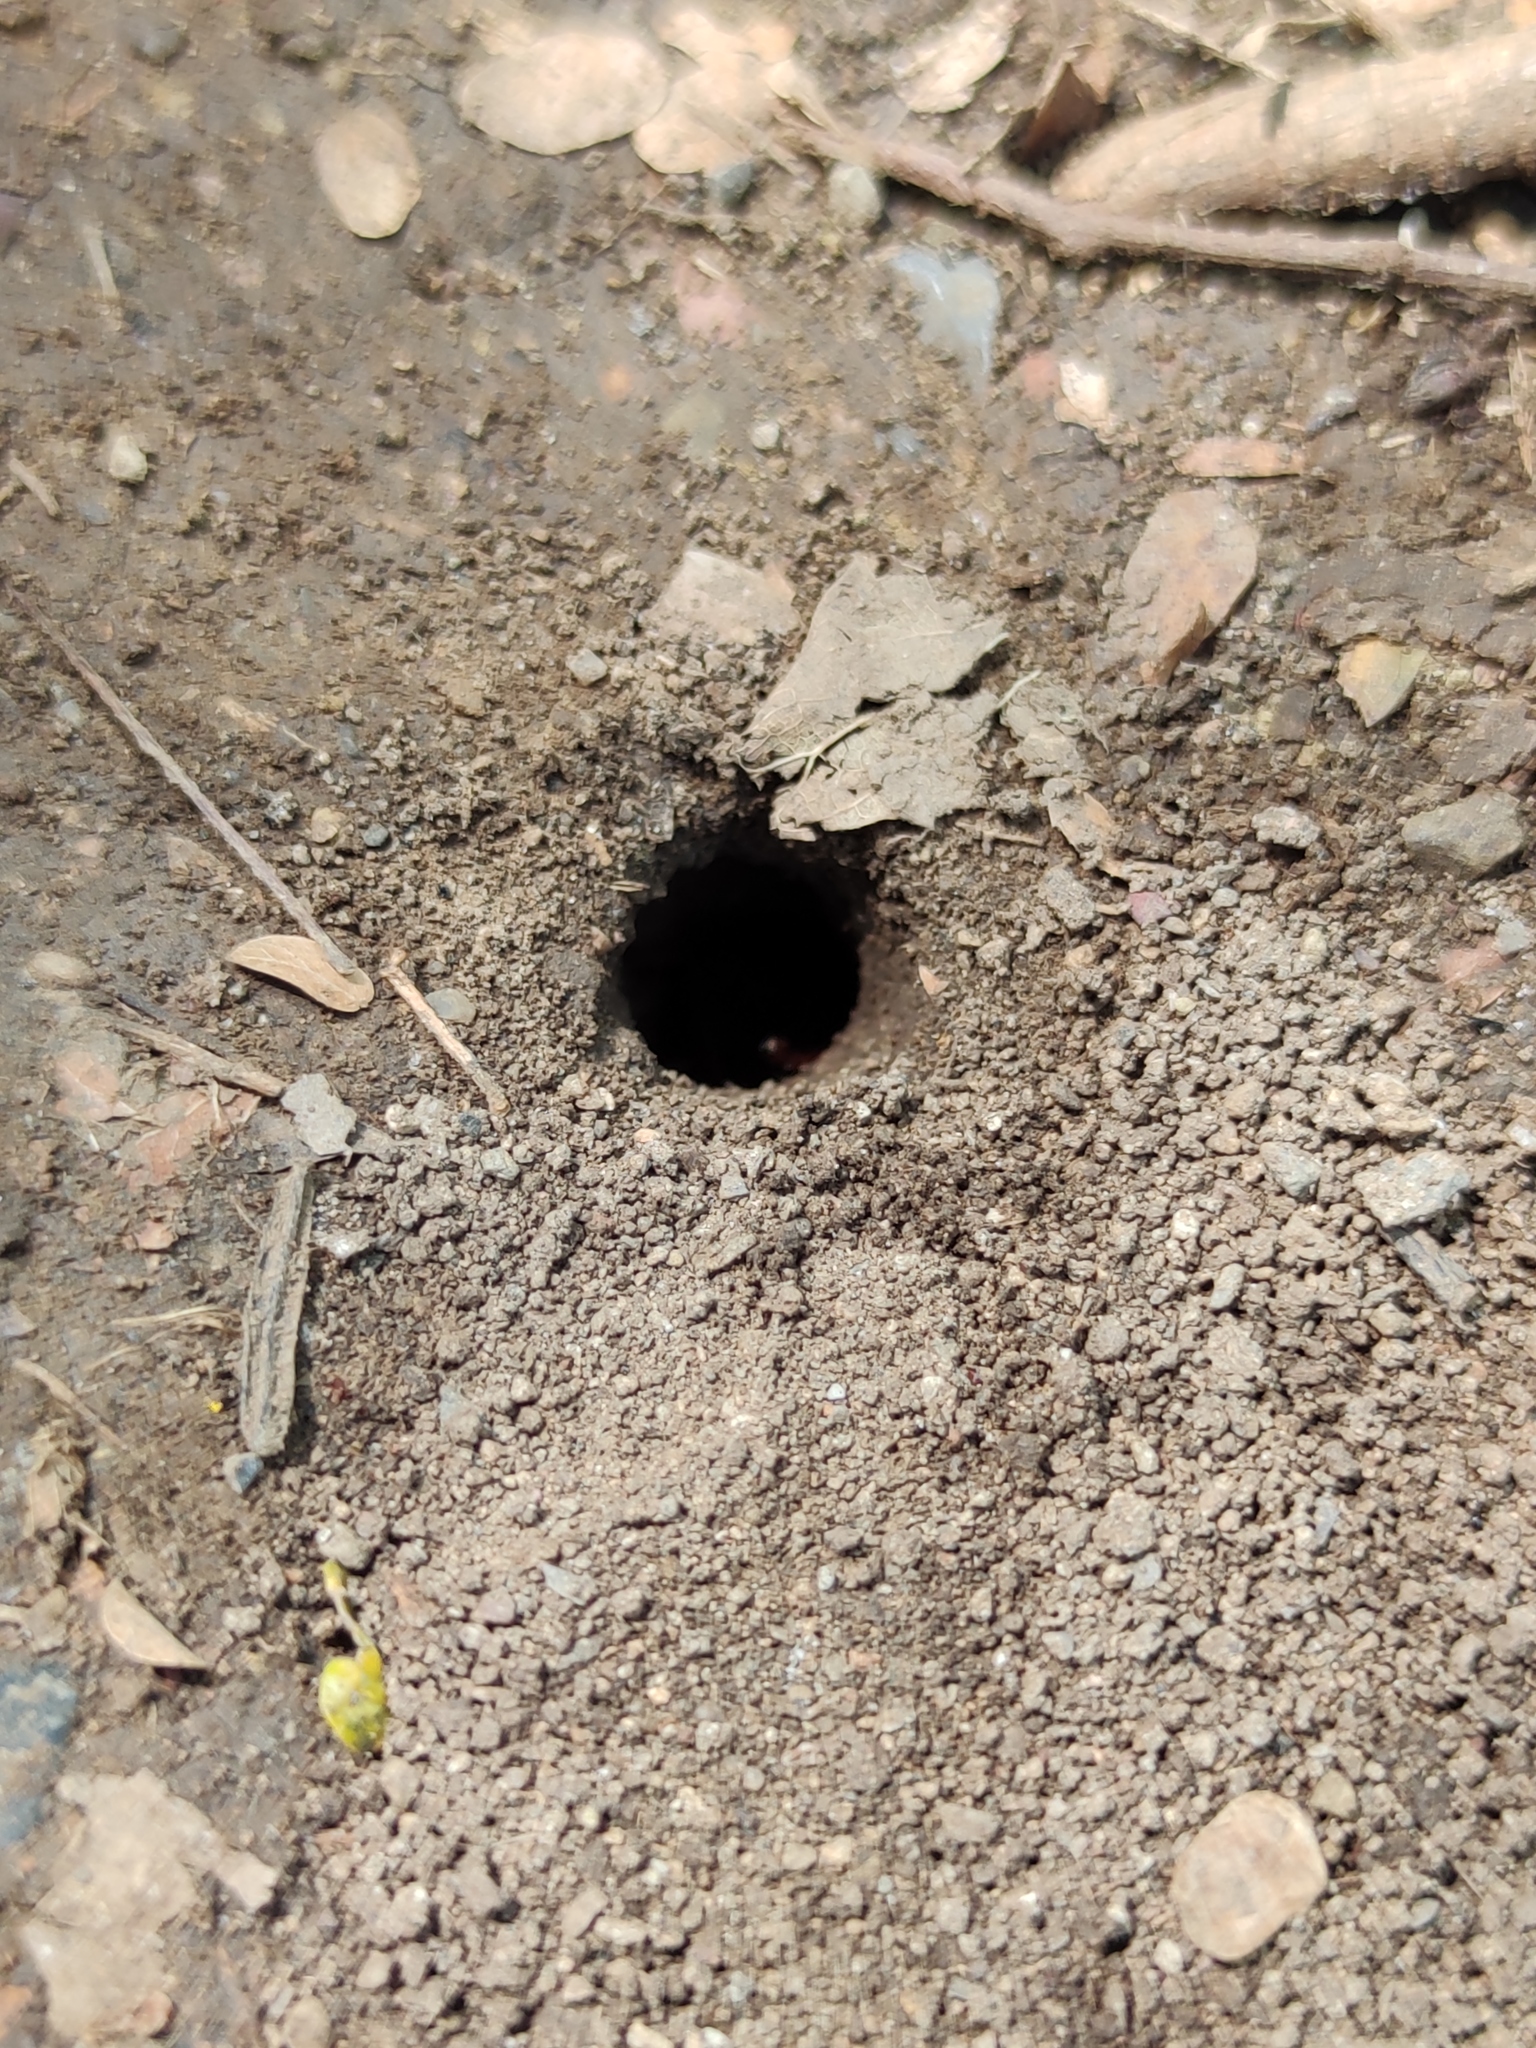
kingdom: Animalia
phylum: Arthropoda
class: Insecta
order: Hymenoptera
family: Sphecidae
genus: Sphex
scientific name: Sphex ichneumoneus
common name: Great golden digger wasp
